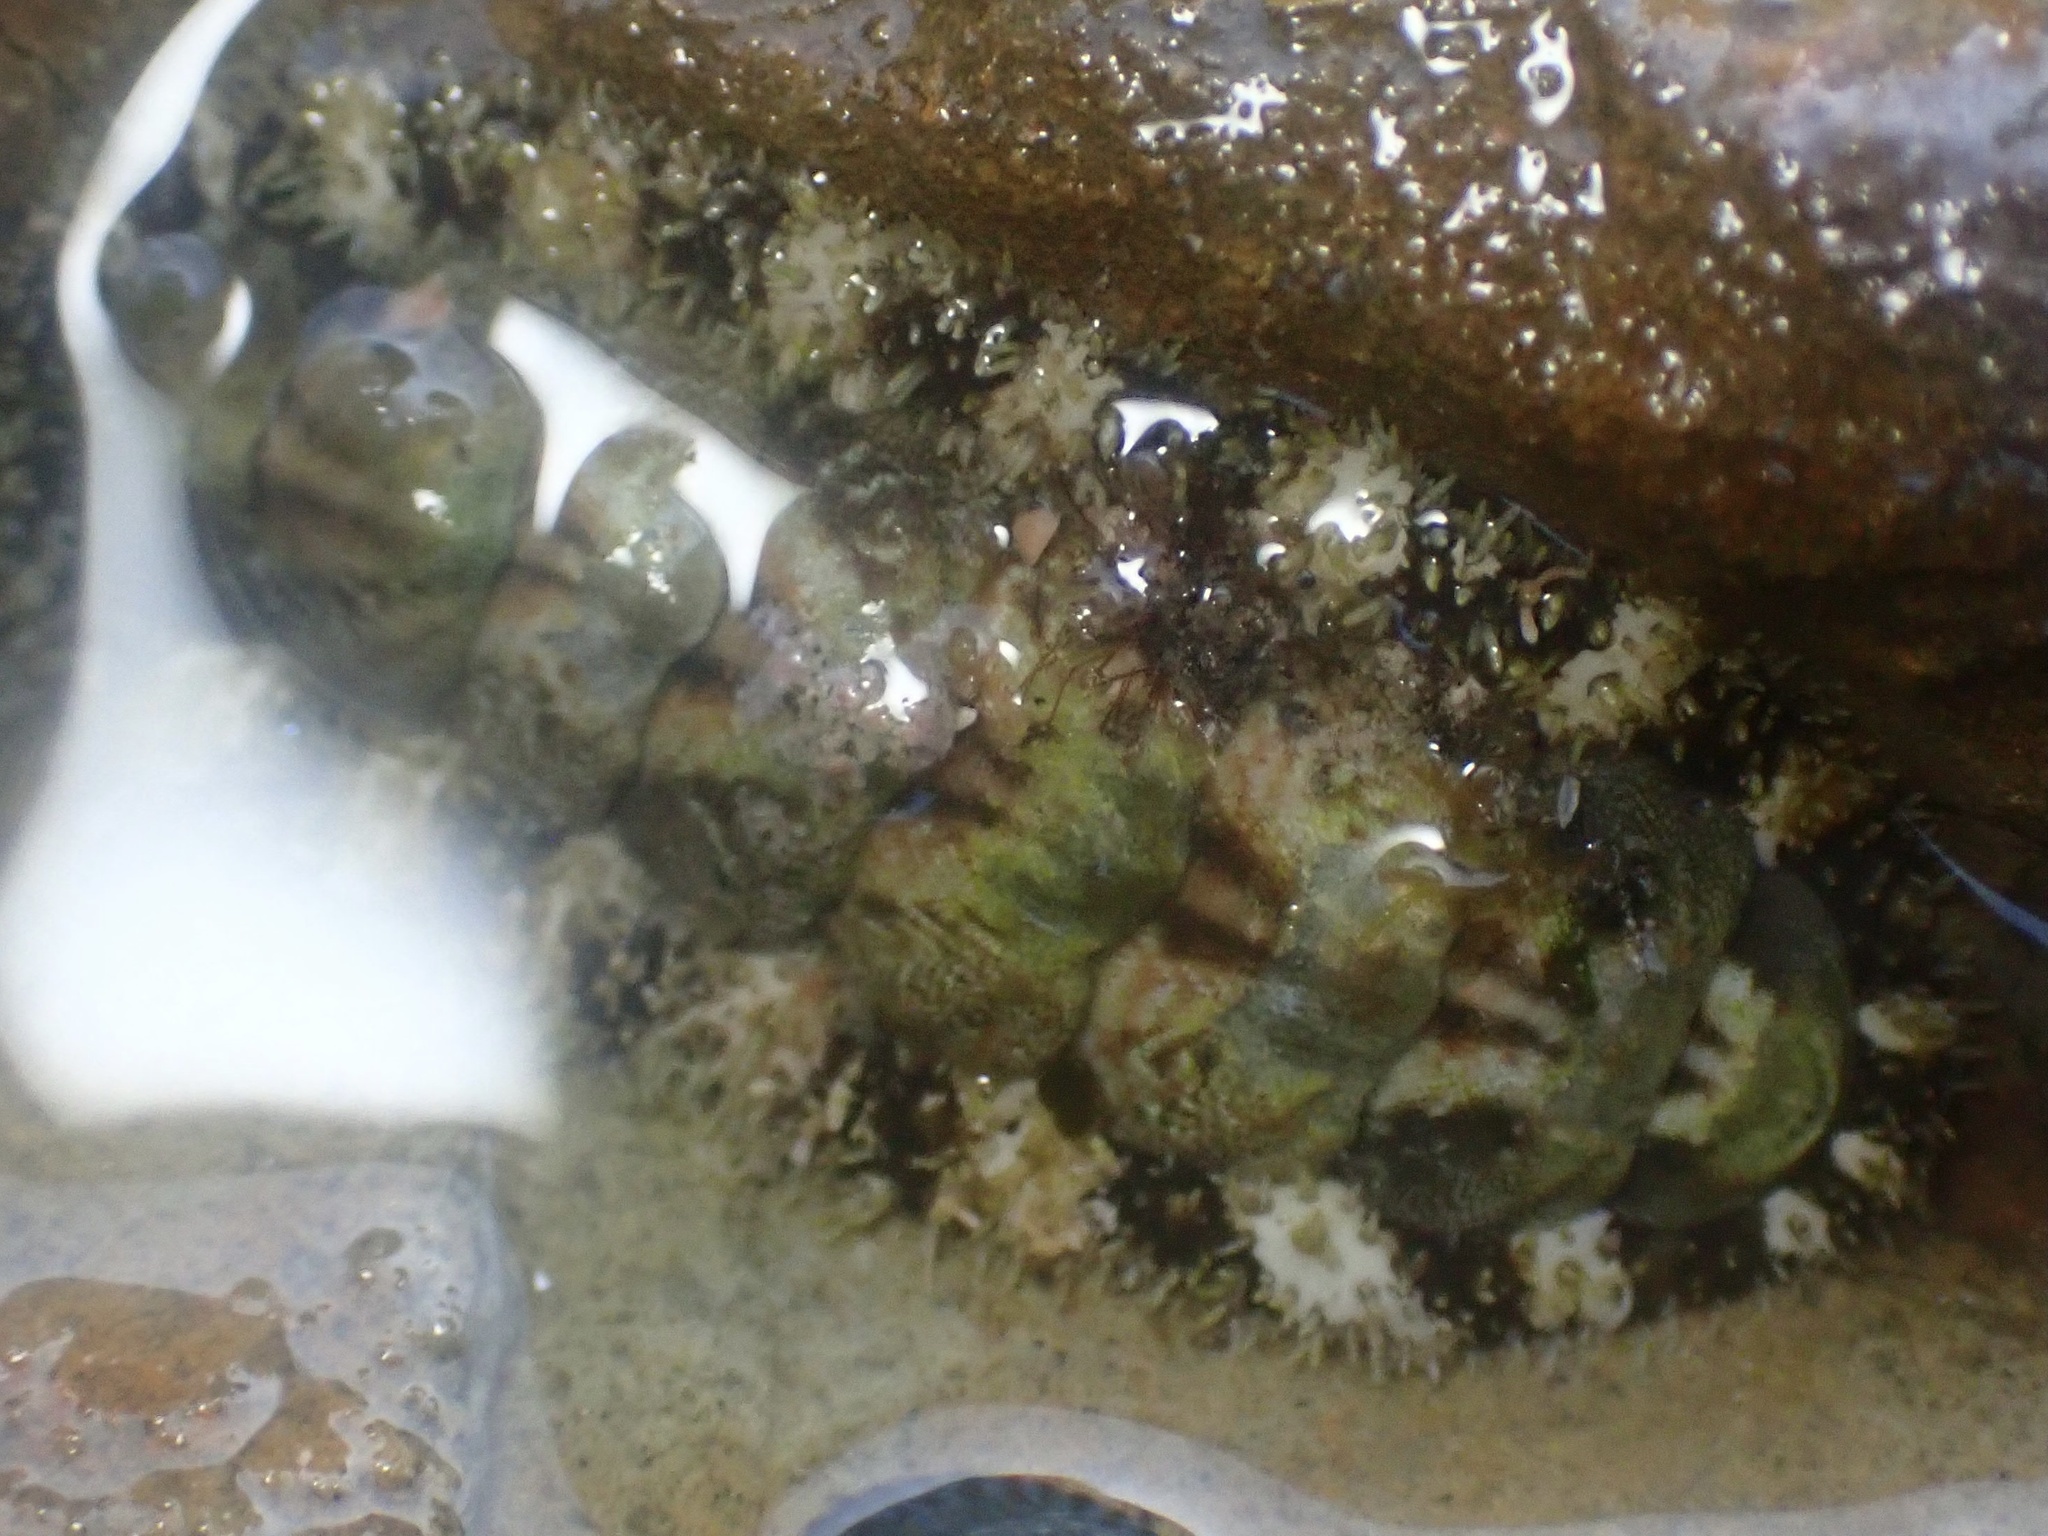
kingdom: Animalia
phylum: Mollusca
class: Polyplacophora
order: Chitonida
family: Tonicellidae
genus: Nuttallina
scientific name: Nuttallina californica
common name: California nuttall chiton
